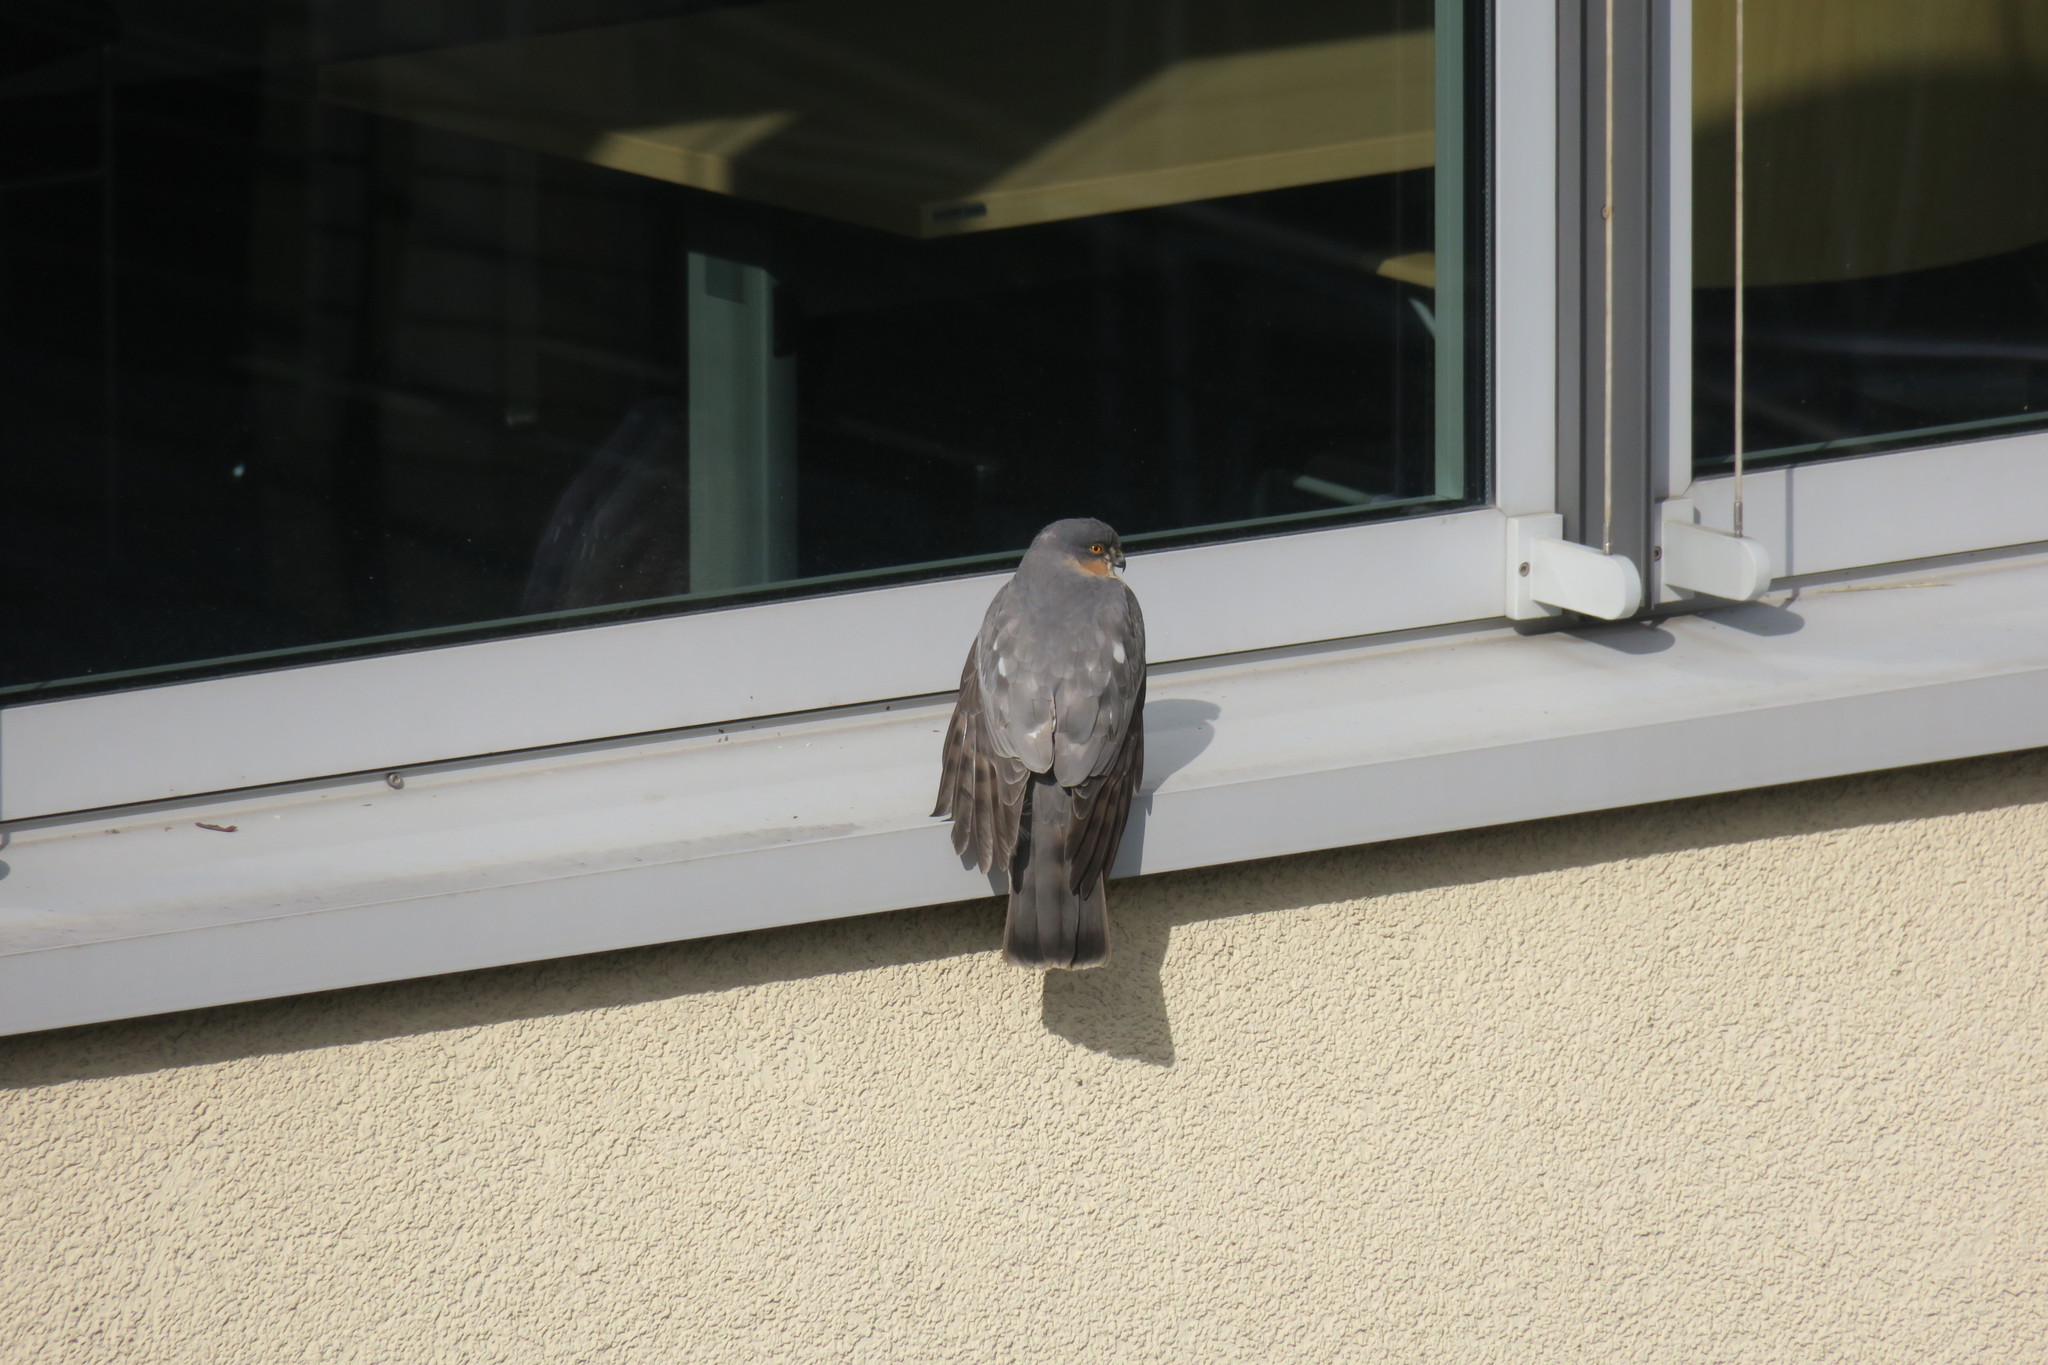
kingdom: Animalia
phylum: Chordata
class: Aves
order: Accipitriformes
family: Accipitridae
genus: Accipiter
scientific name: Accipiter nisus
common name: Eurasian sparrowhawk
